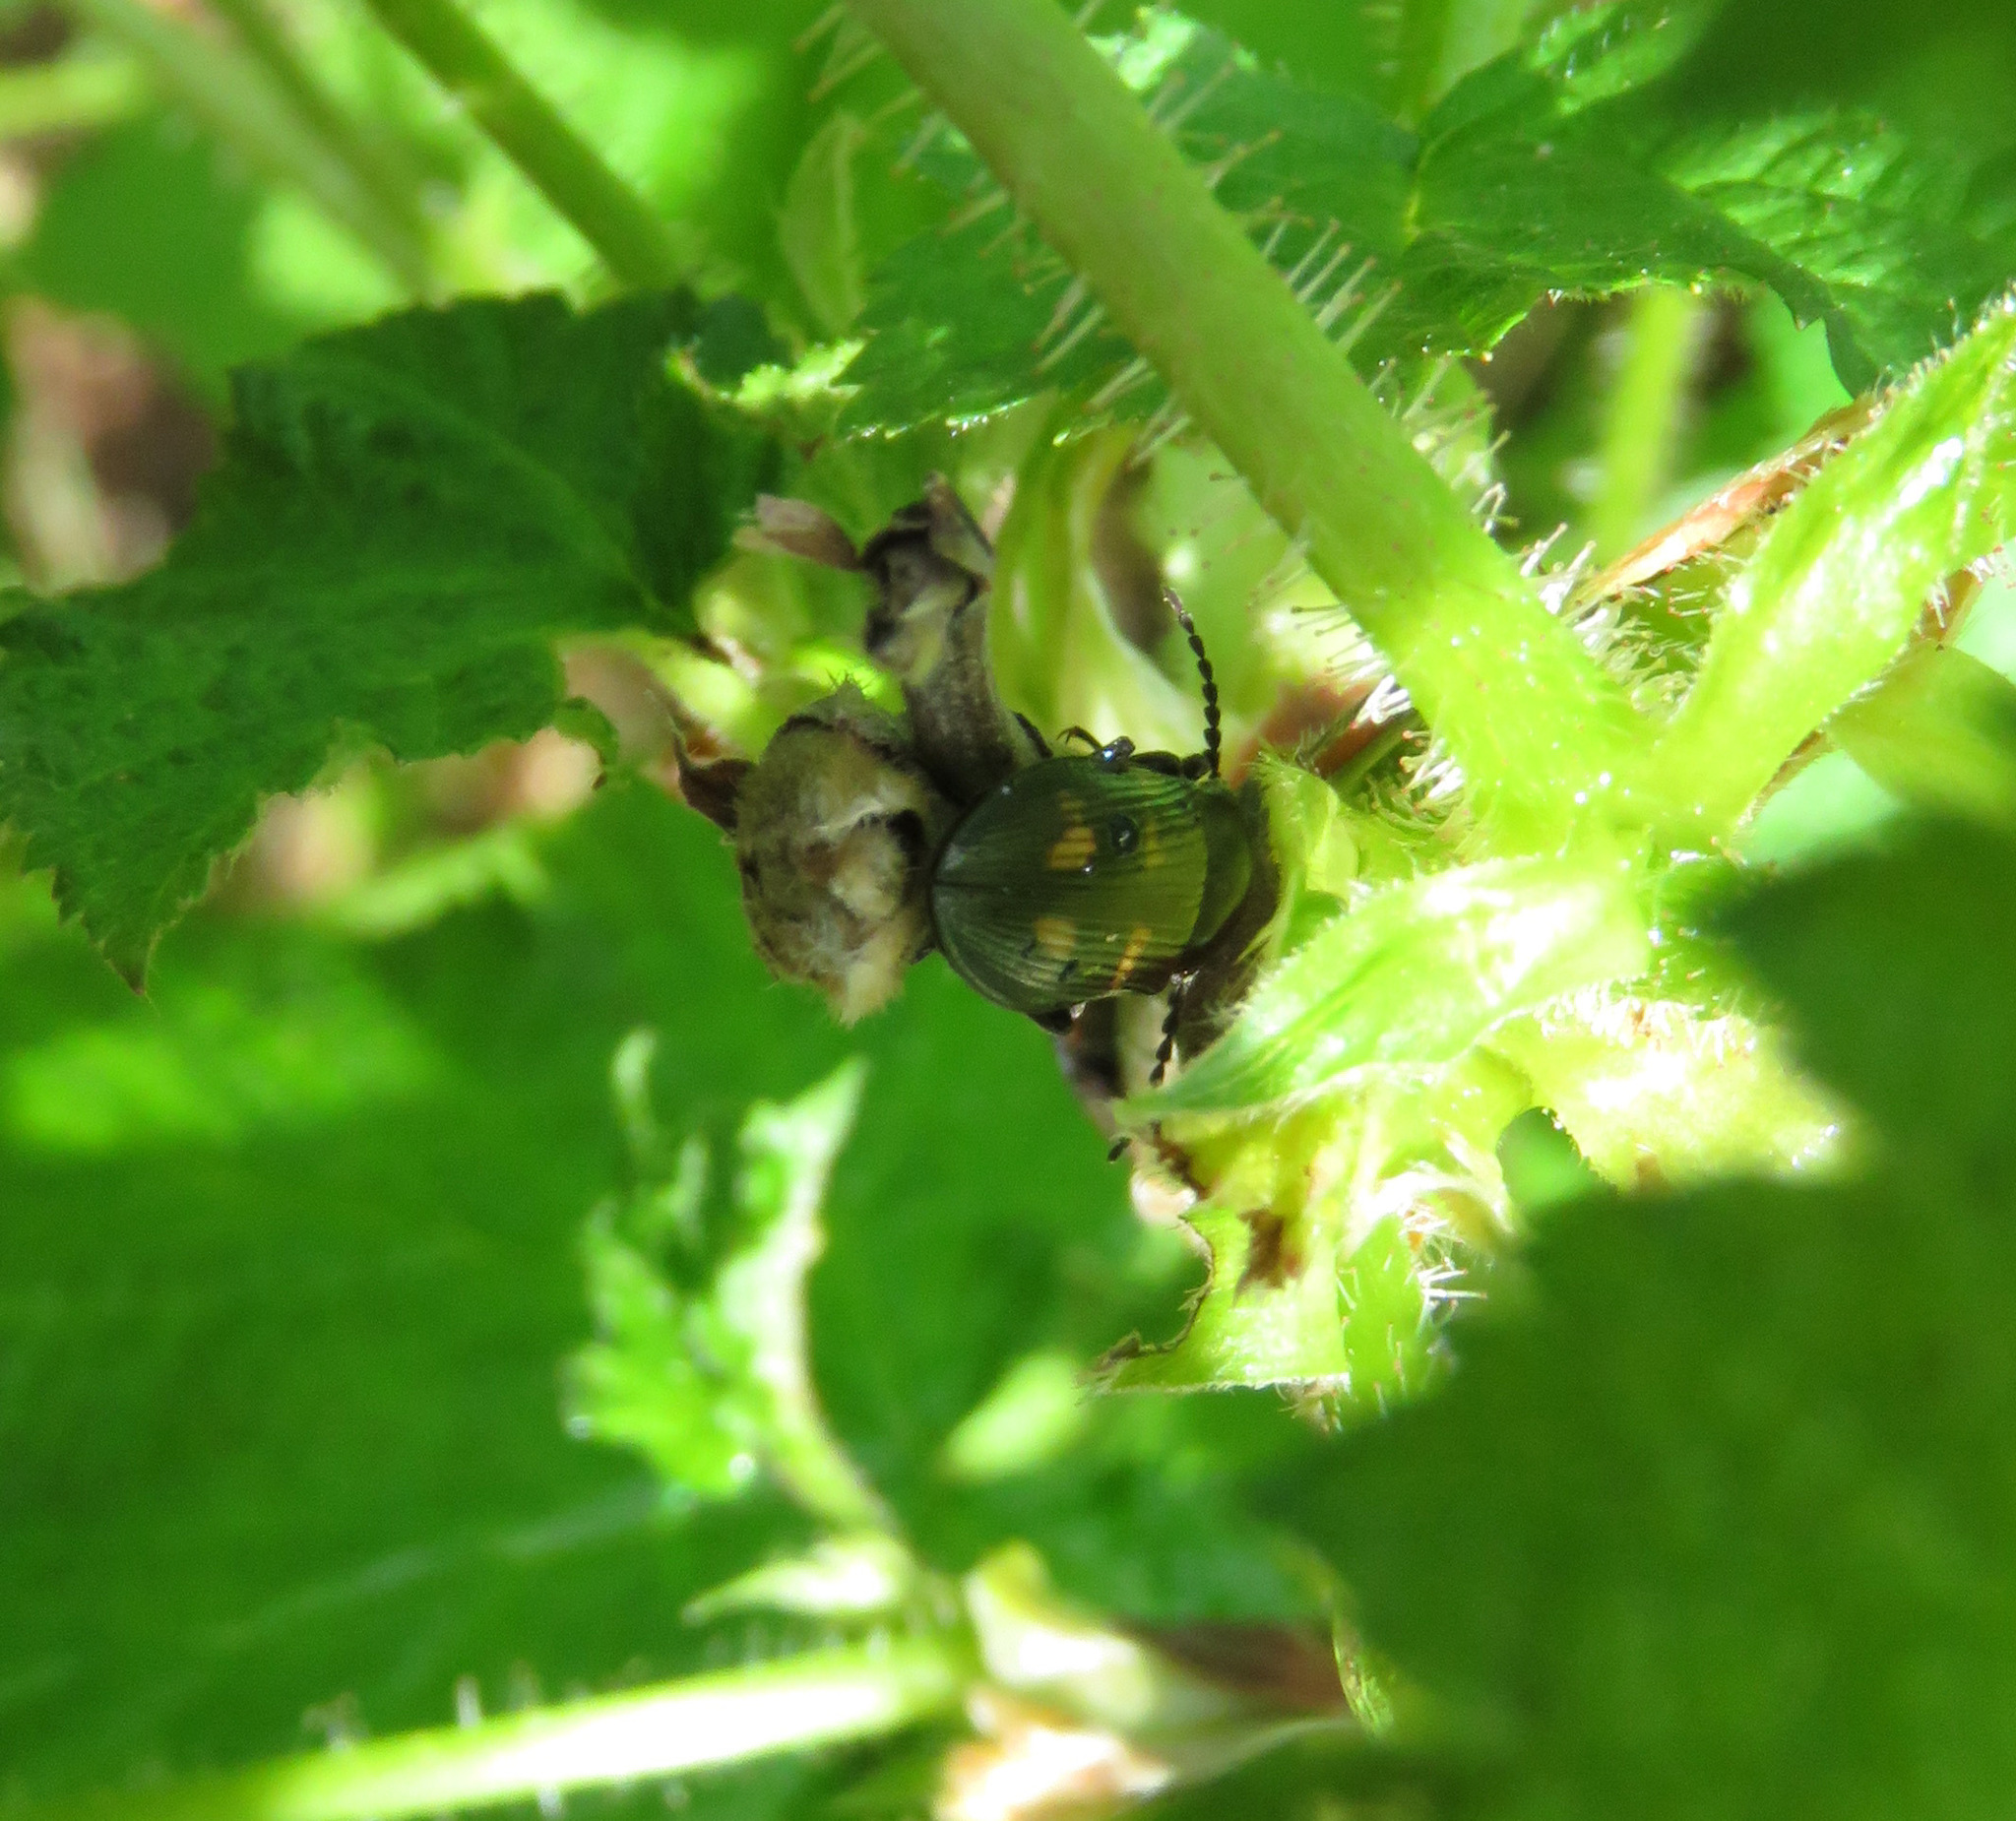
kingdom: Animalia
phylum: Arthropoda
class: Insecta
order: Coleoptera
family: Elateridae
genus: Selatosomus
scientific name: Selatosomus suckleyi
